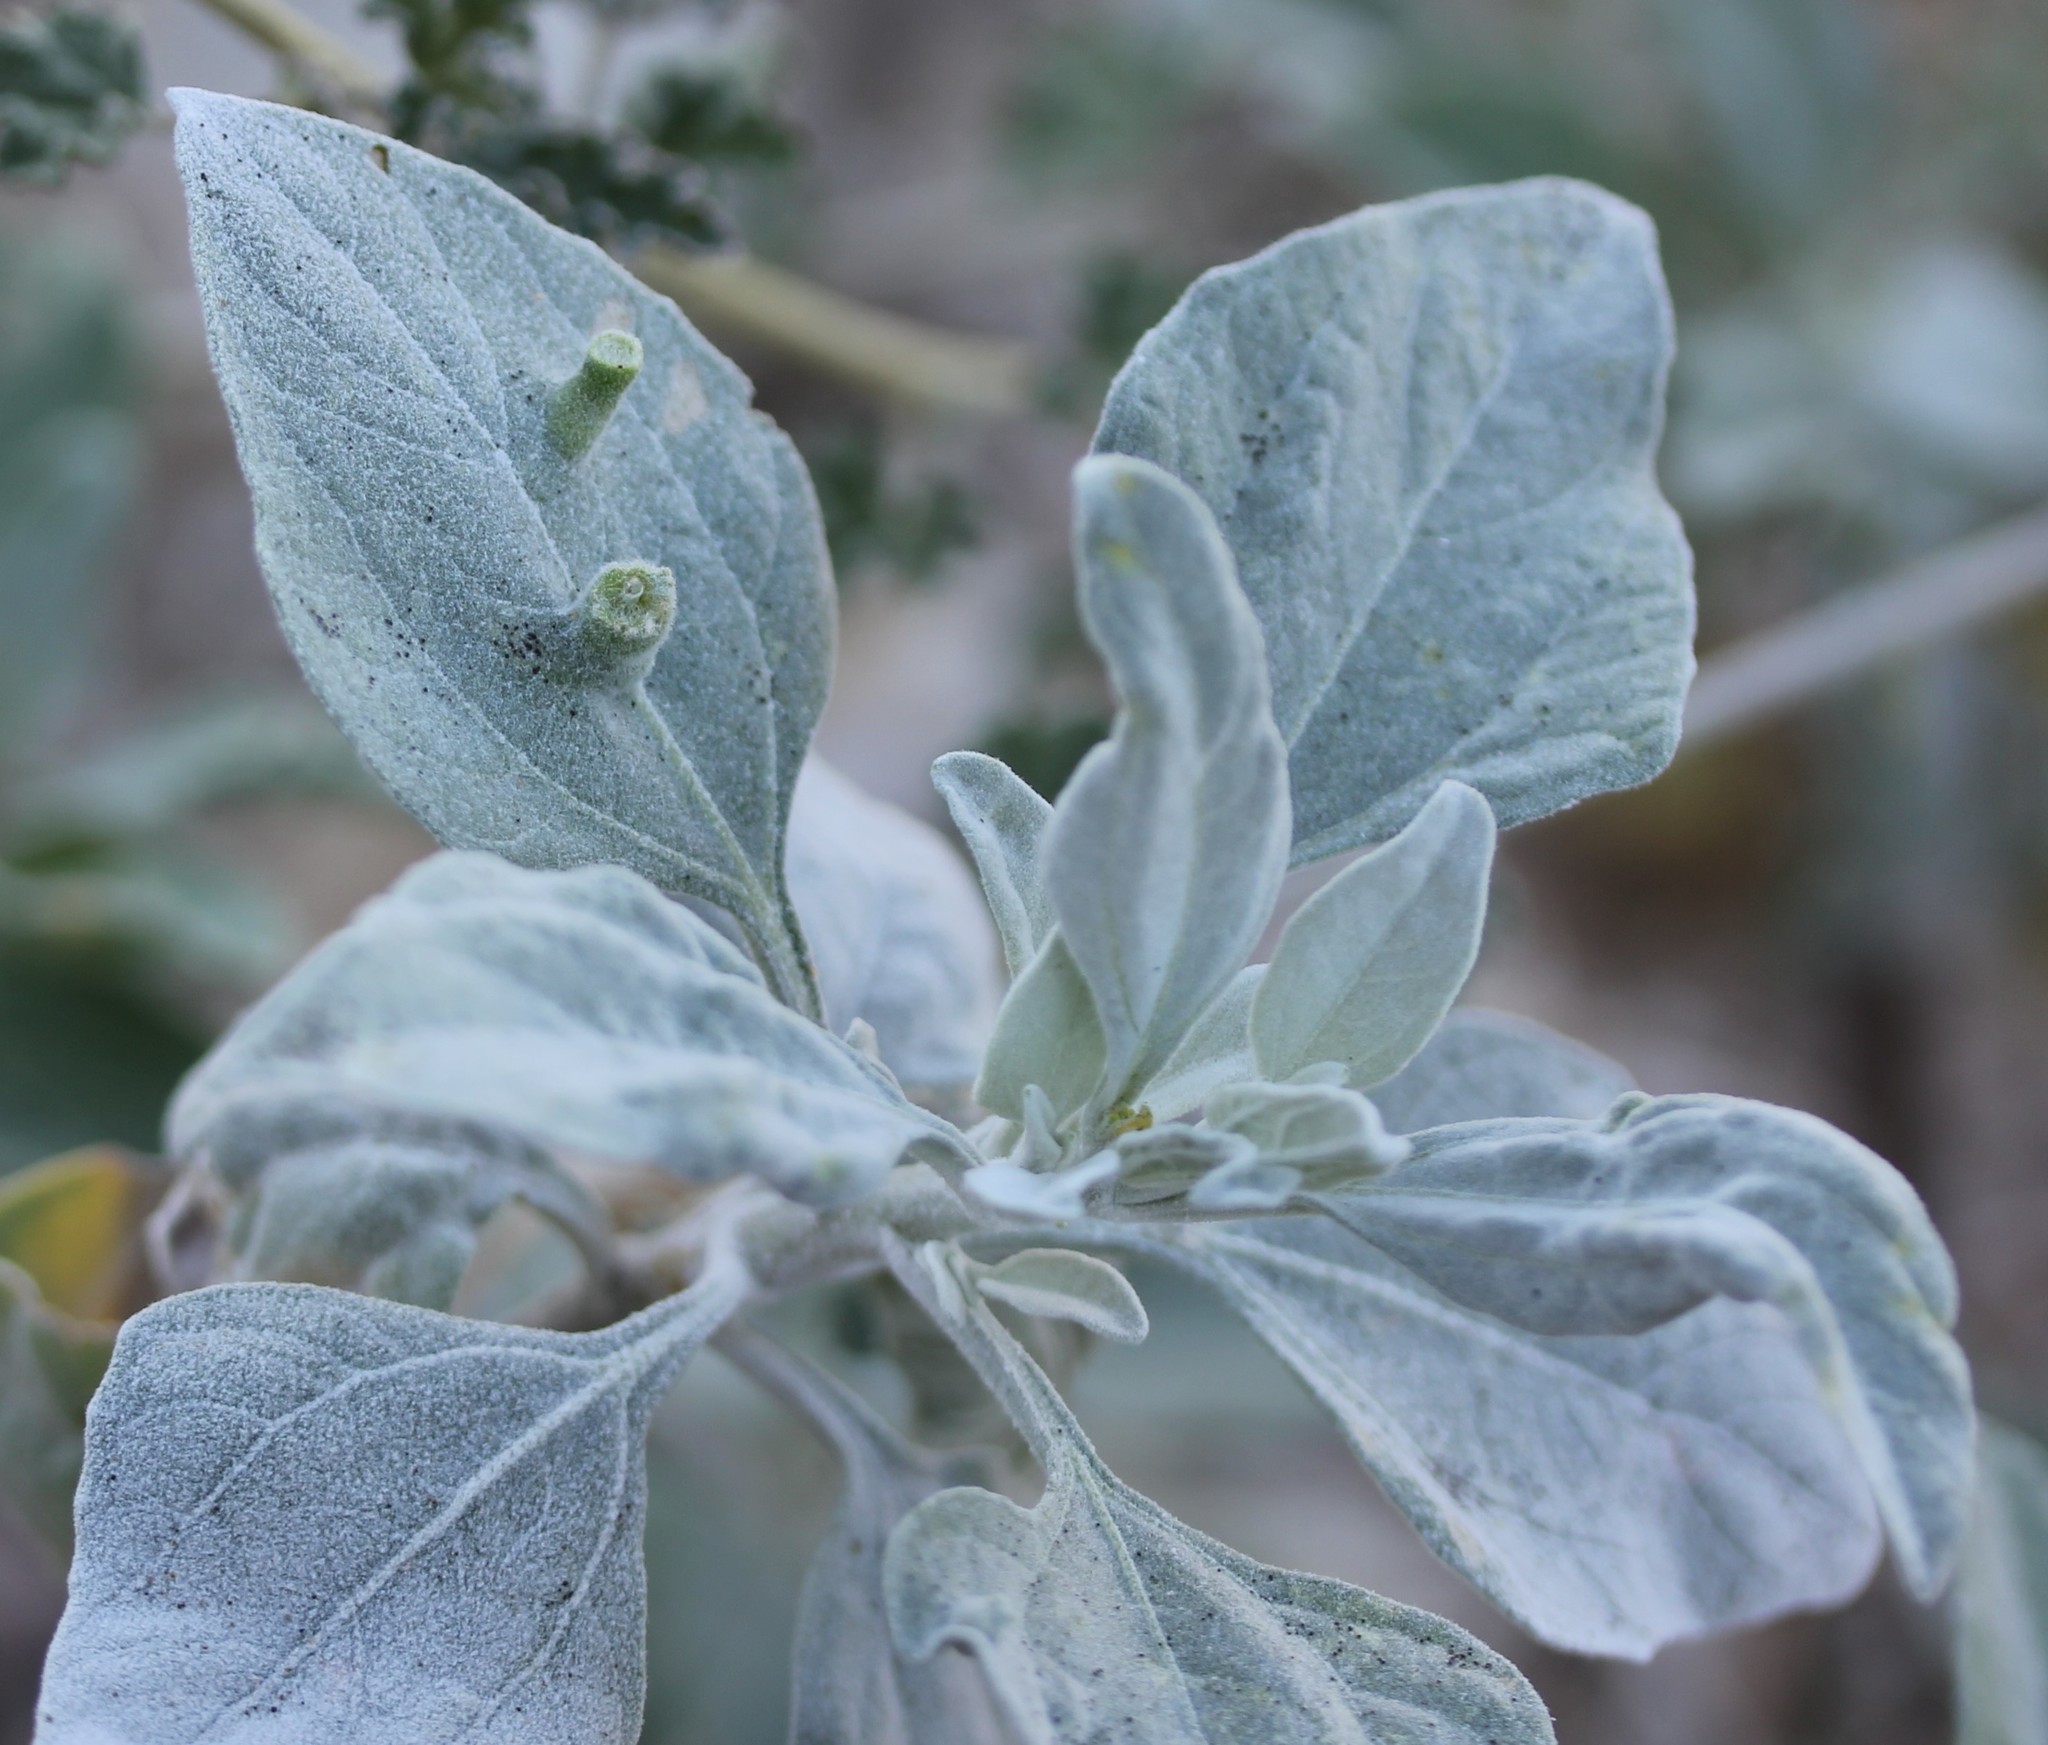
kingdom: Plantae
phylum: Tracheophyta
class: Magnoliopsida
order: Asterales
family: Asteraceae
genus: Encelia
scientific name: Encelia farinosa
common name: Brittlebush
